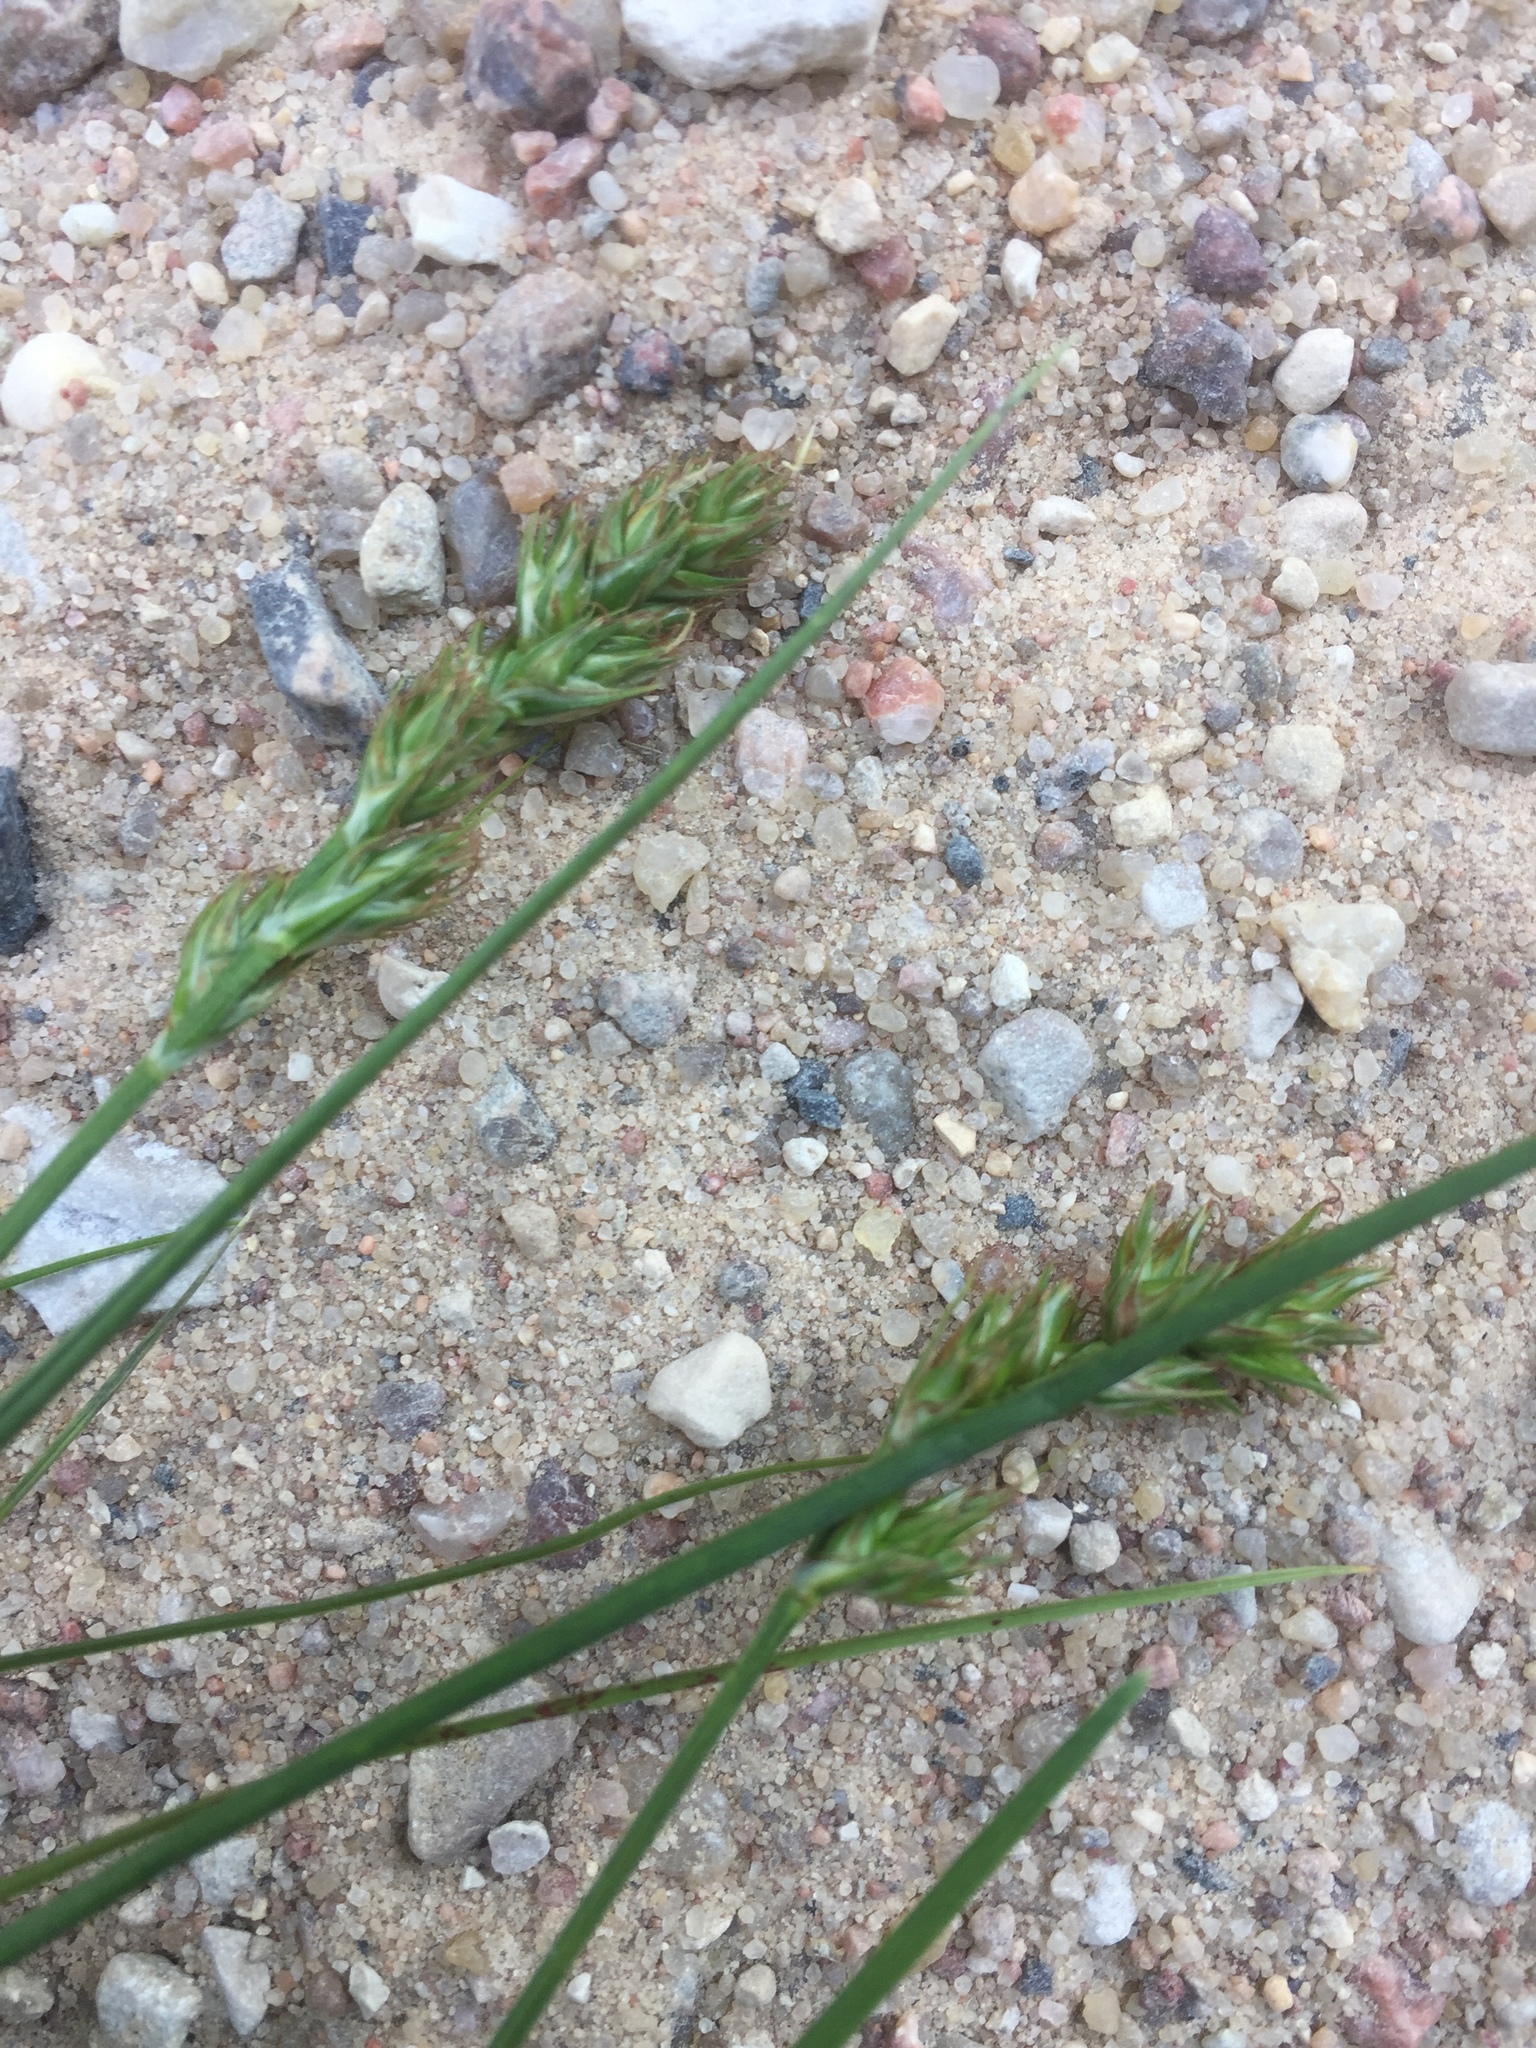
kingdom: Plantae
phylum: Tracheophyta
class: Liliopsida
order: Poales
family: Cyperaceae
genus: Carex
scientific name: Carex spicata
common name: Spiked sedge
